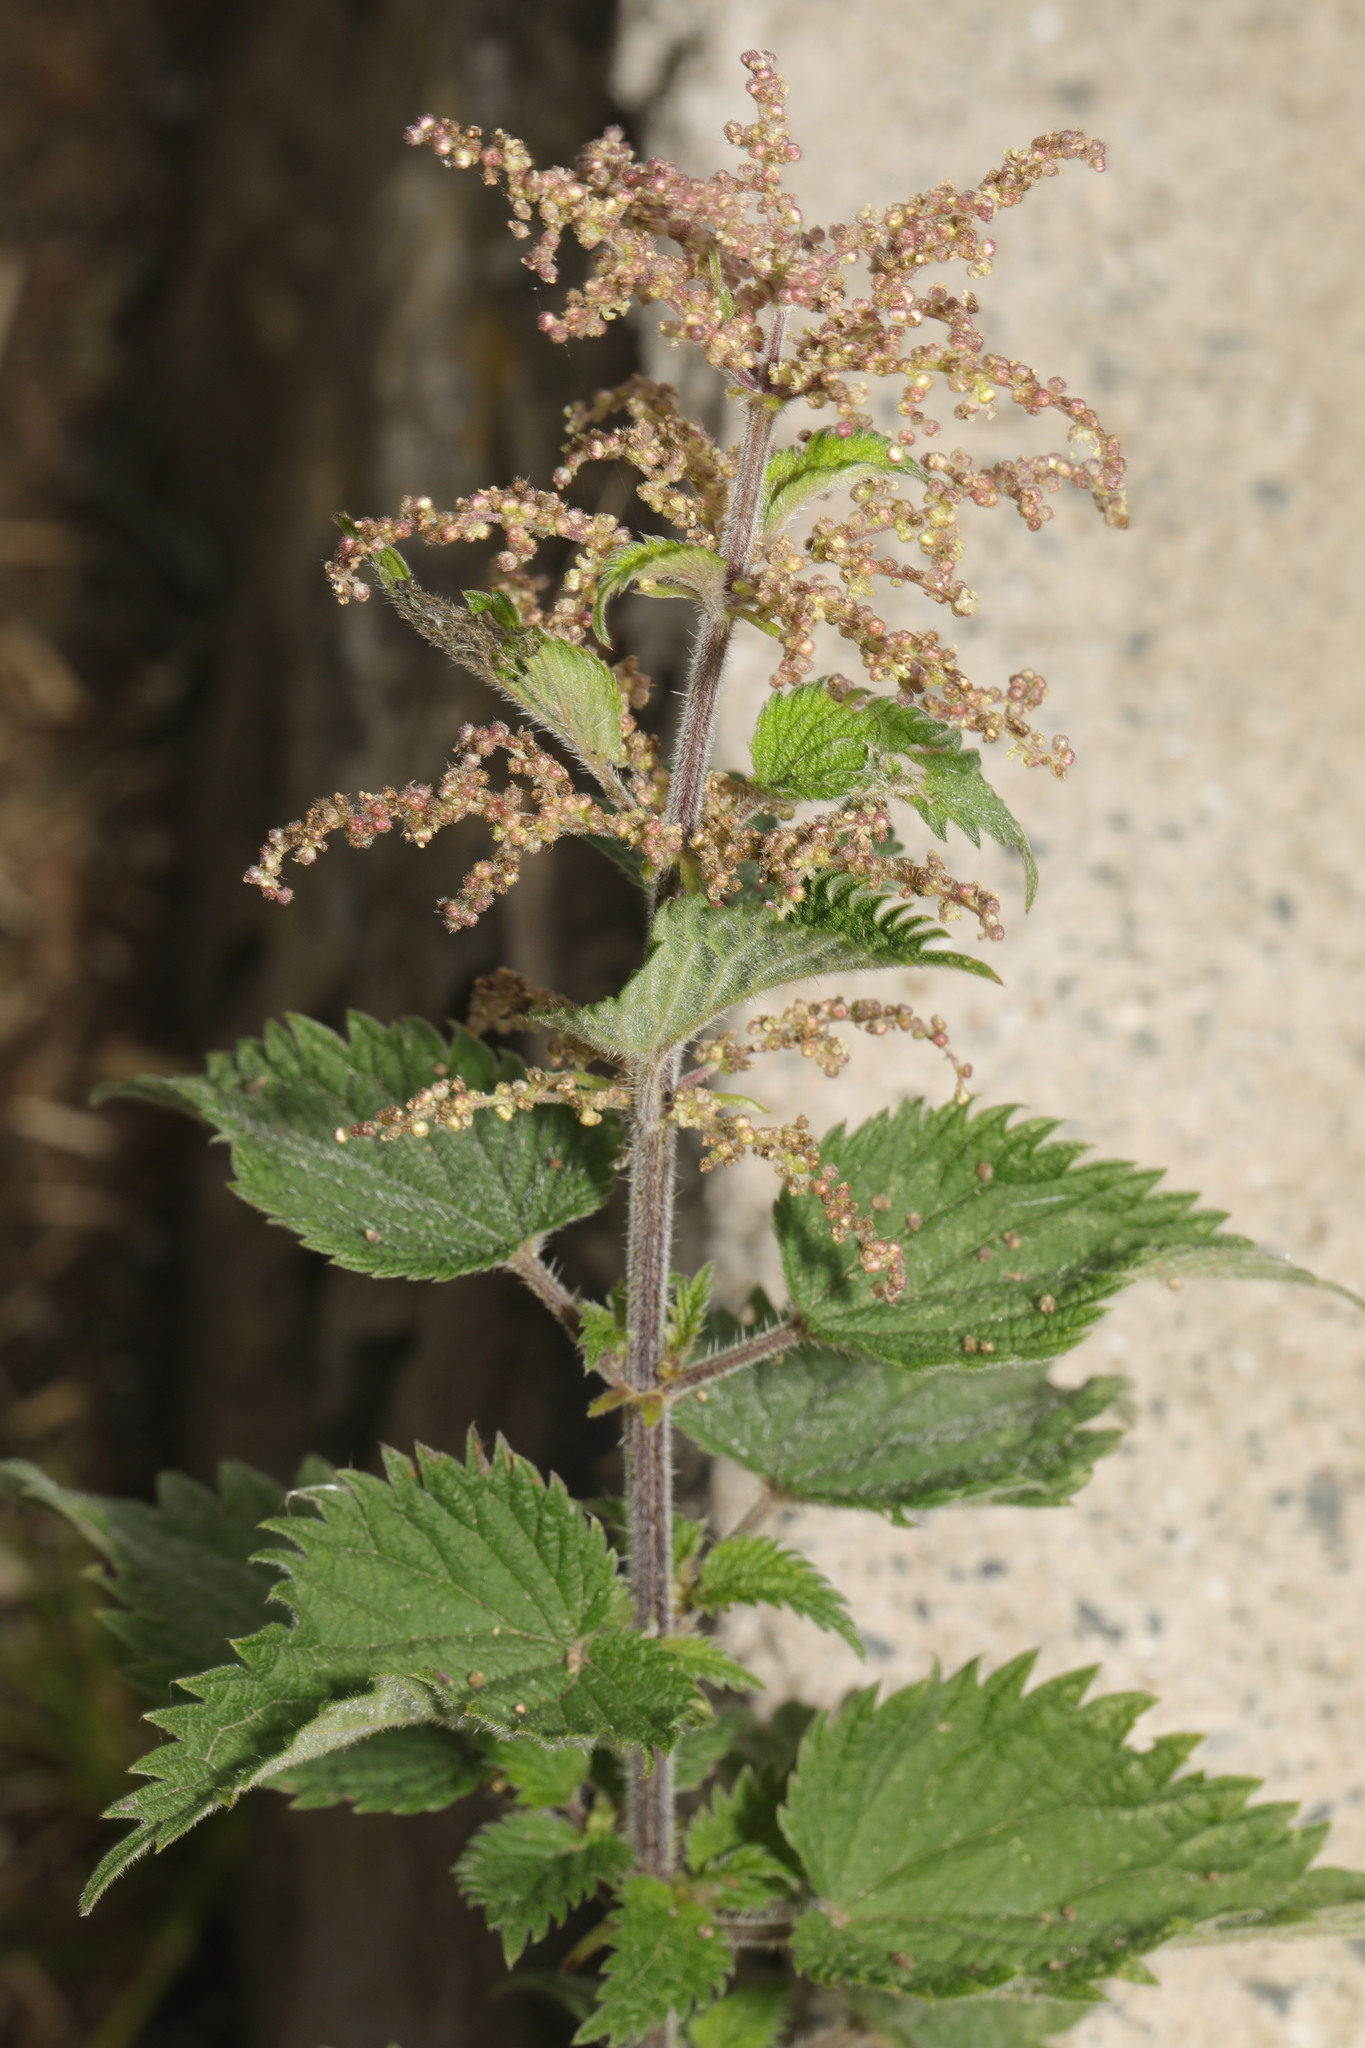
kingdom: Plantae
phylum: Tracheophyta
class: Magnoliopsida
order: Rosales
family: Urticaceae
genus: Urtica
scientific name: Urtica dioica
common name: Common nettle
